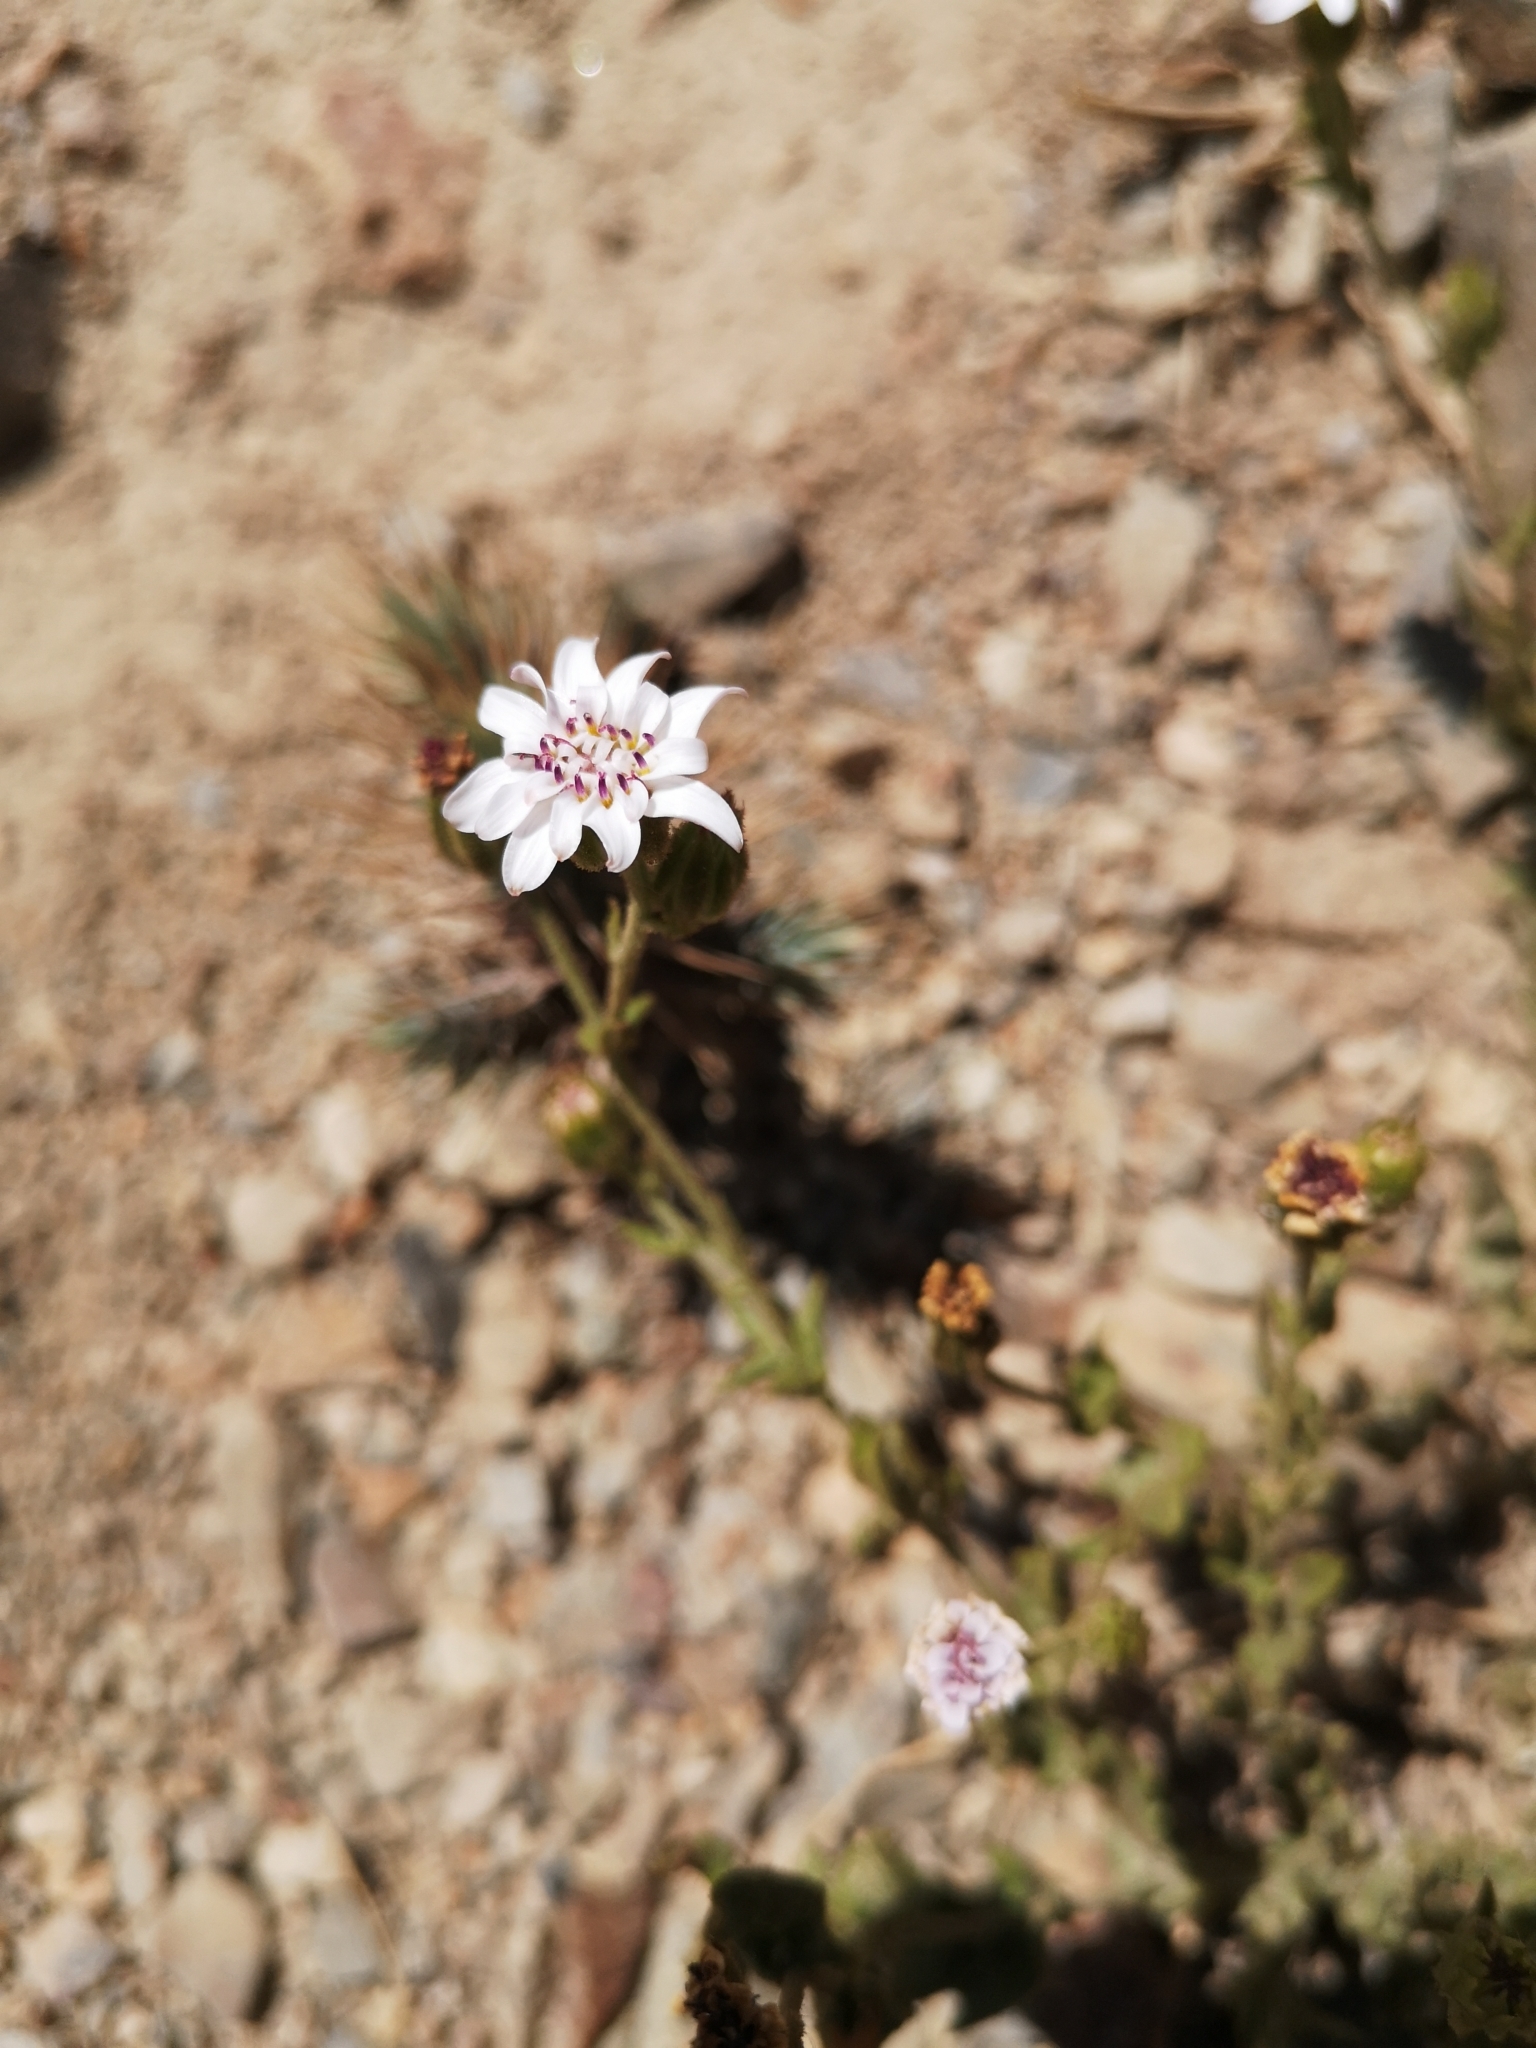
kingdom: Plantae
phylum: Tracheophyta
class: Magnoliopsida
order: Asterales
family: Asteraceae
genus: Leucheria
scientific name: Leucheria congesta
